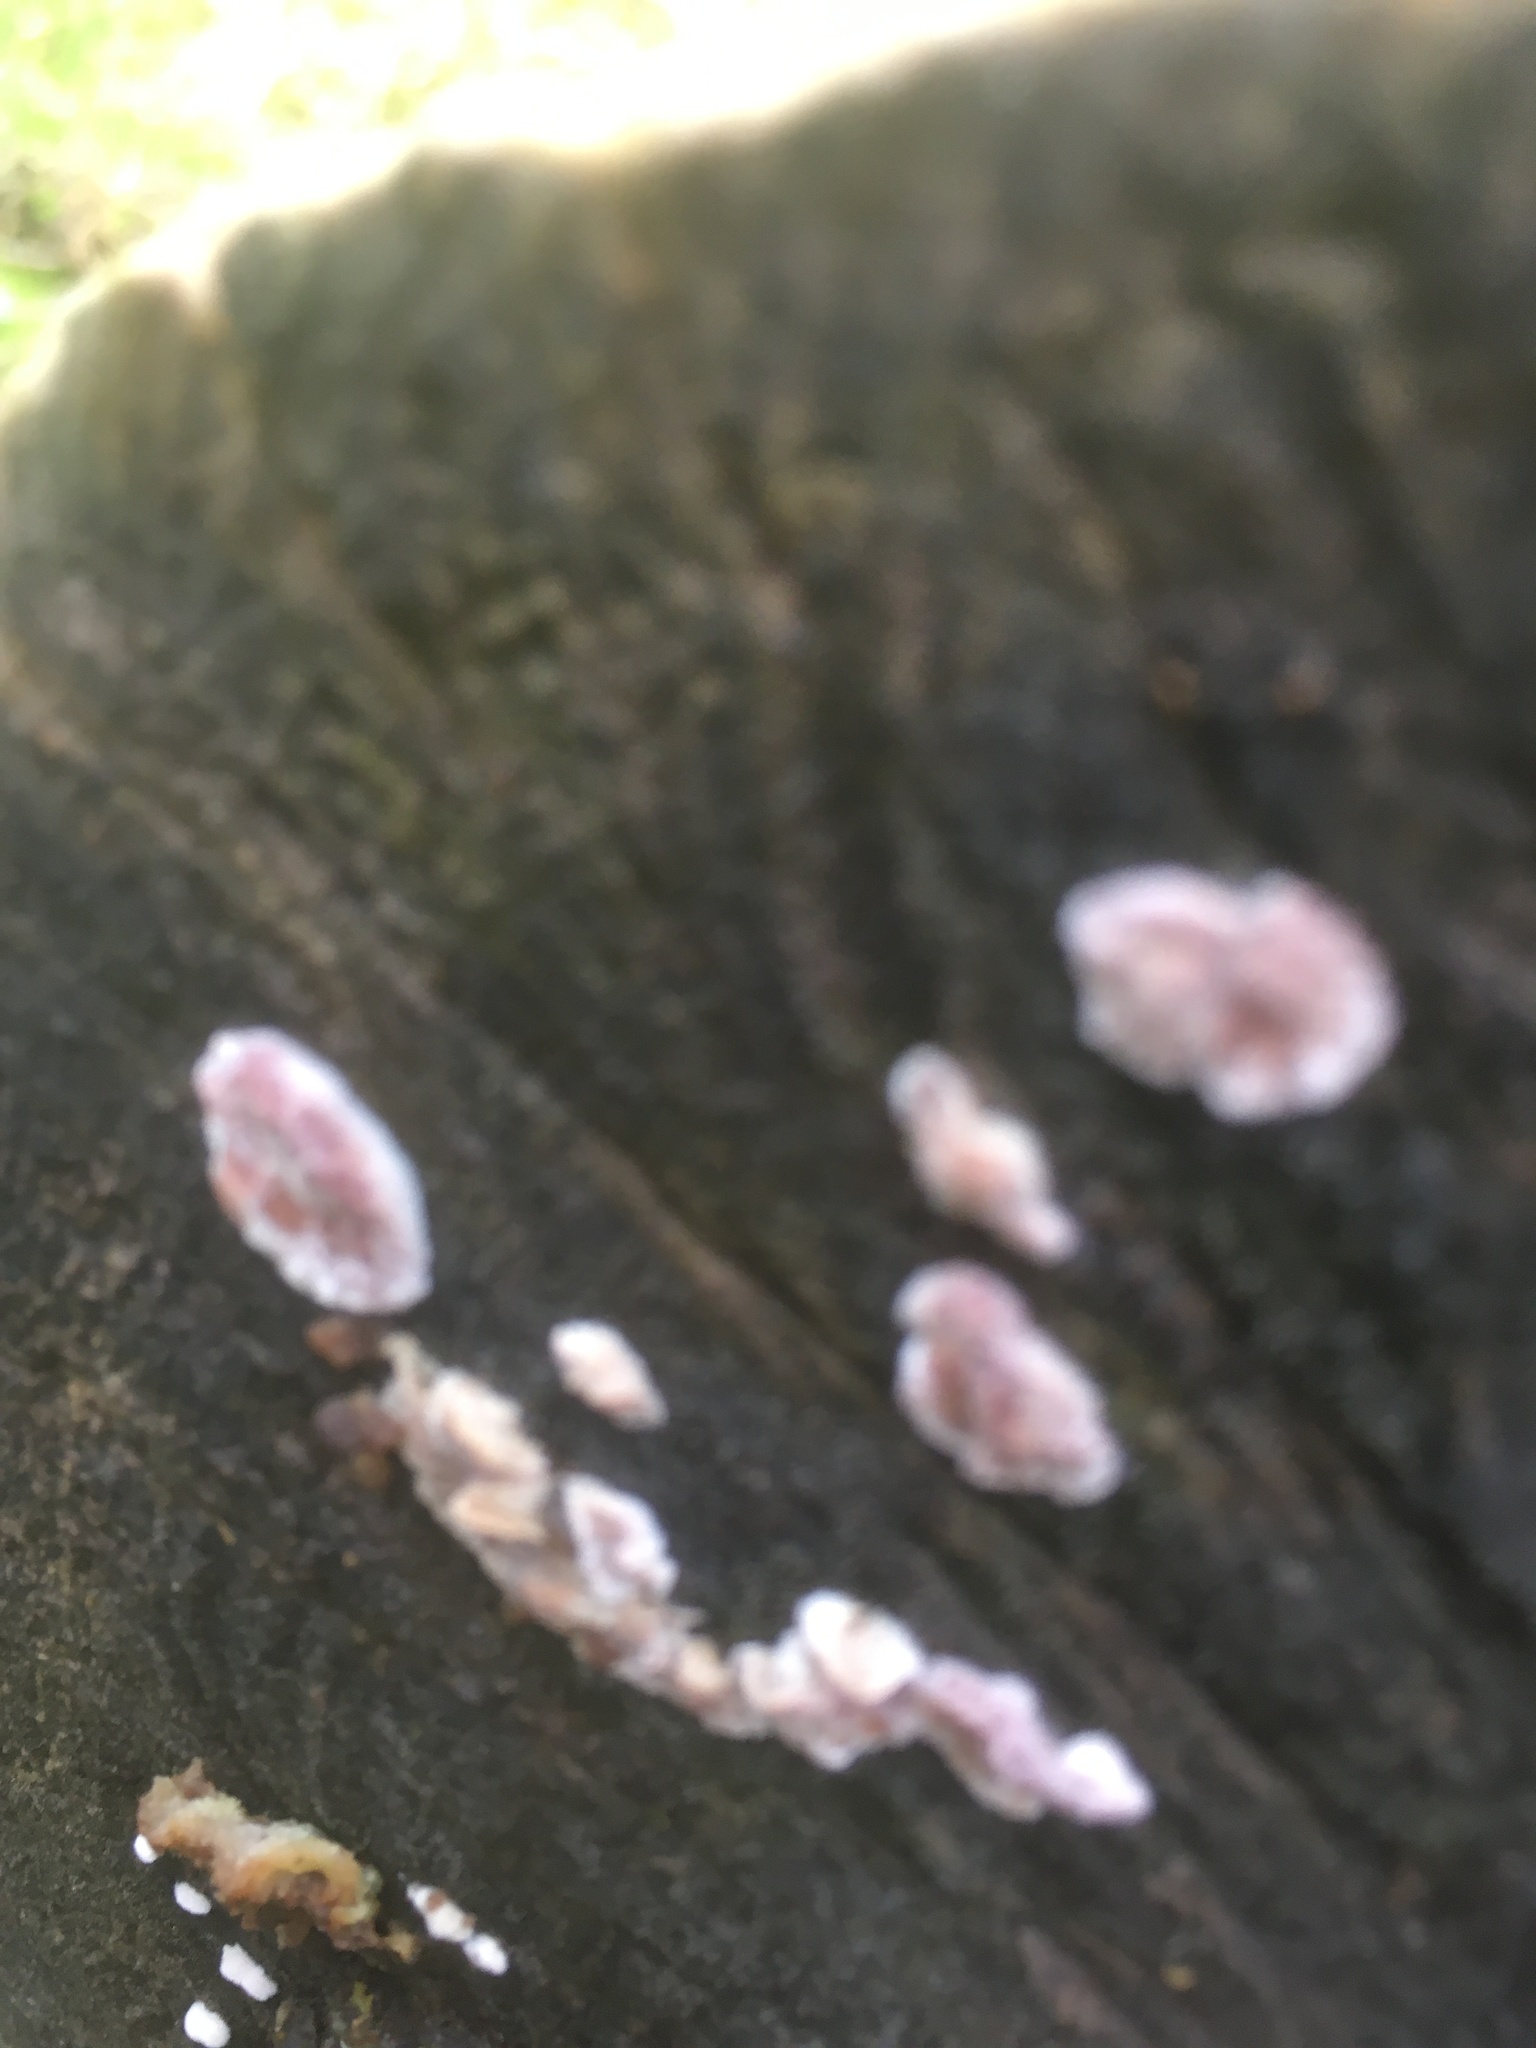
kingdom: Fungi
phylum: Basidiomycota
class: Agaricomycetes
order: Agaricales
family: Cyphellaceae
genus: Chondrostereum
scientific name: Chondrostereum purpureum
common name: Silver leaf disease
